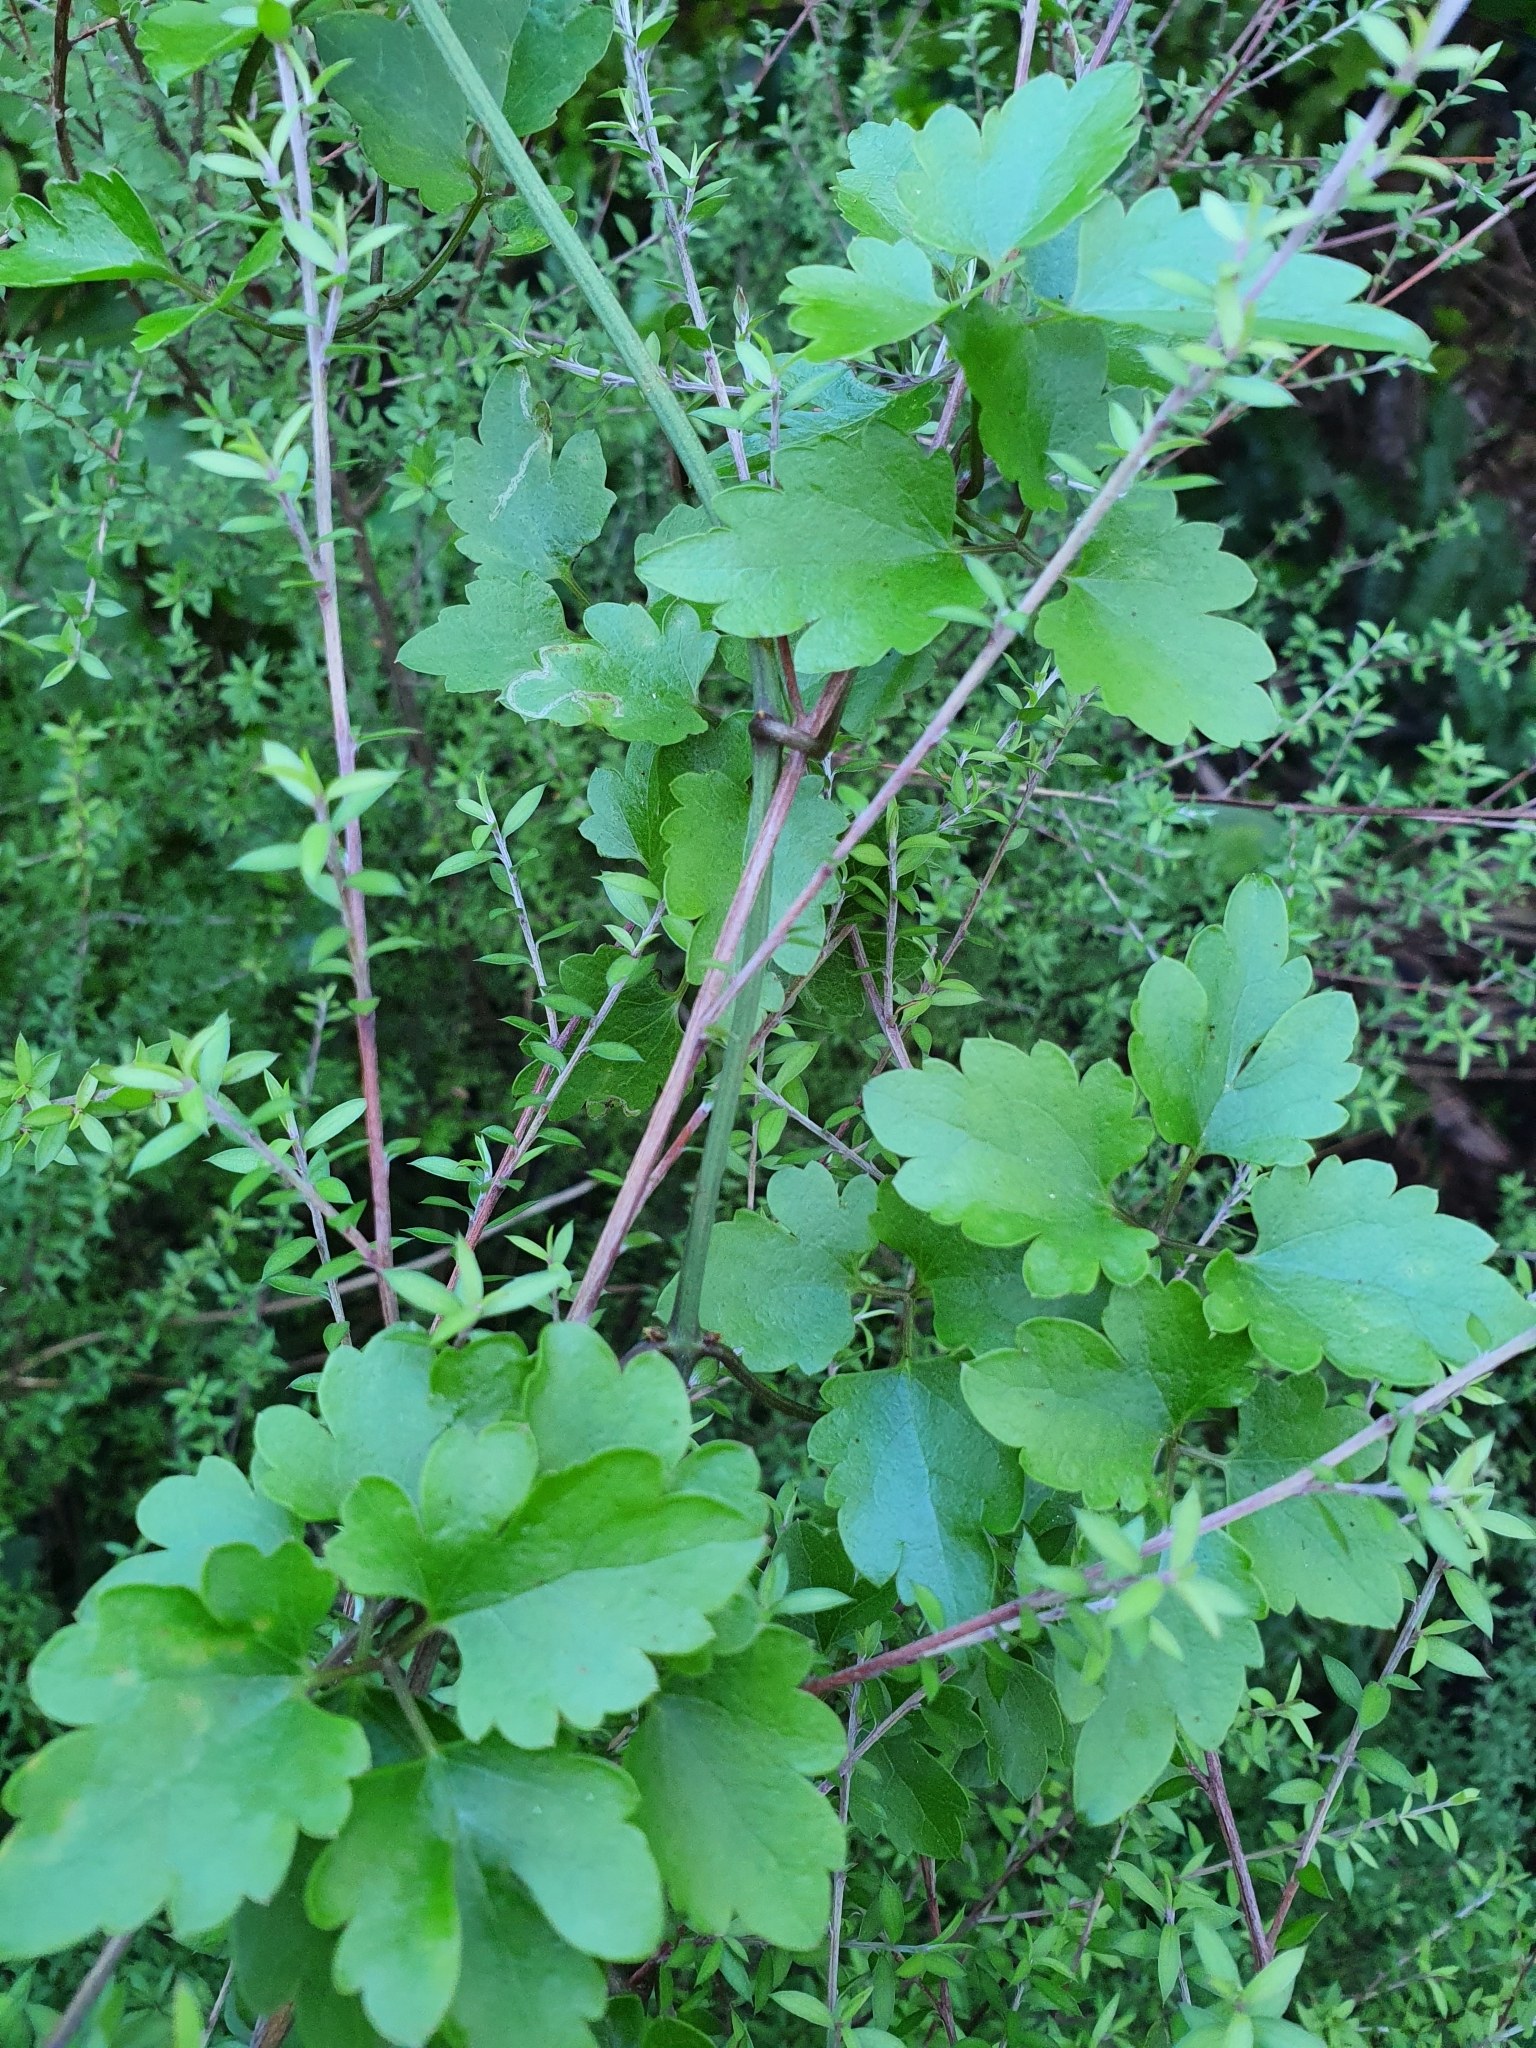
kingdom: Plantae
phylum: Tracheophyta
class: Magnoliopsida
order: Ranunculales
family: Ranunculaceae
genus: Clematis
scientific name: Clematis forsteri
